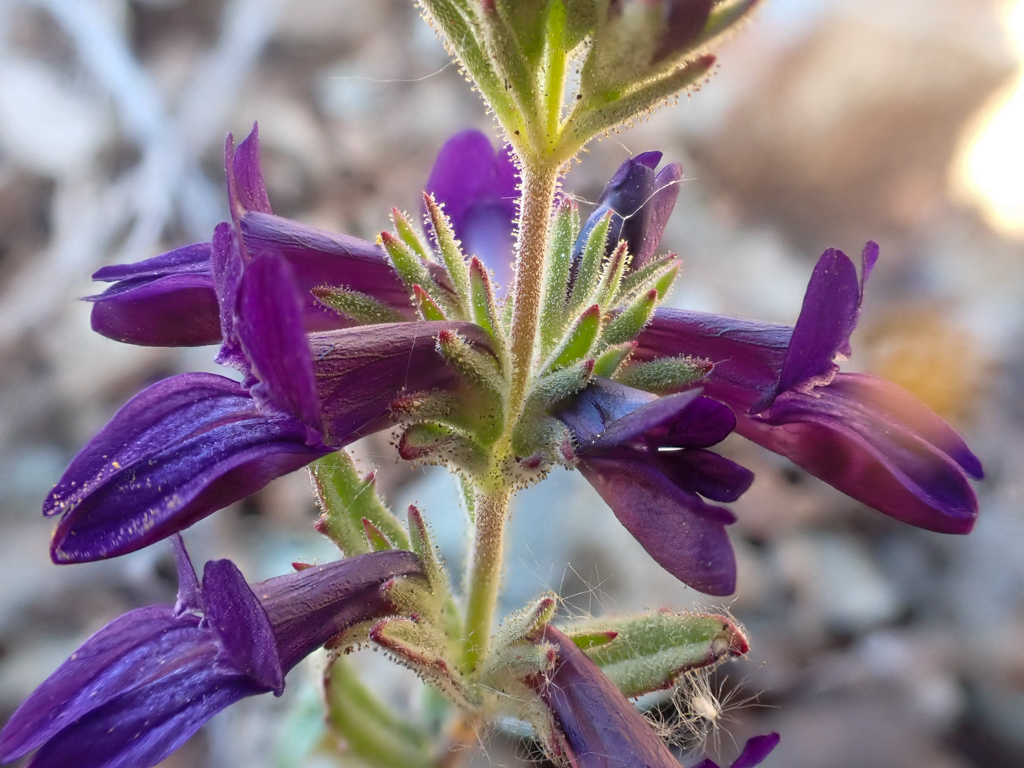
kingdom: Plantae
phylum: Tracheophyta
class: Magnoliopsida
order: Lamiales
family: Plantaginaceae
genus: Collinsia
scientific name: Collinsia greenei
